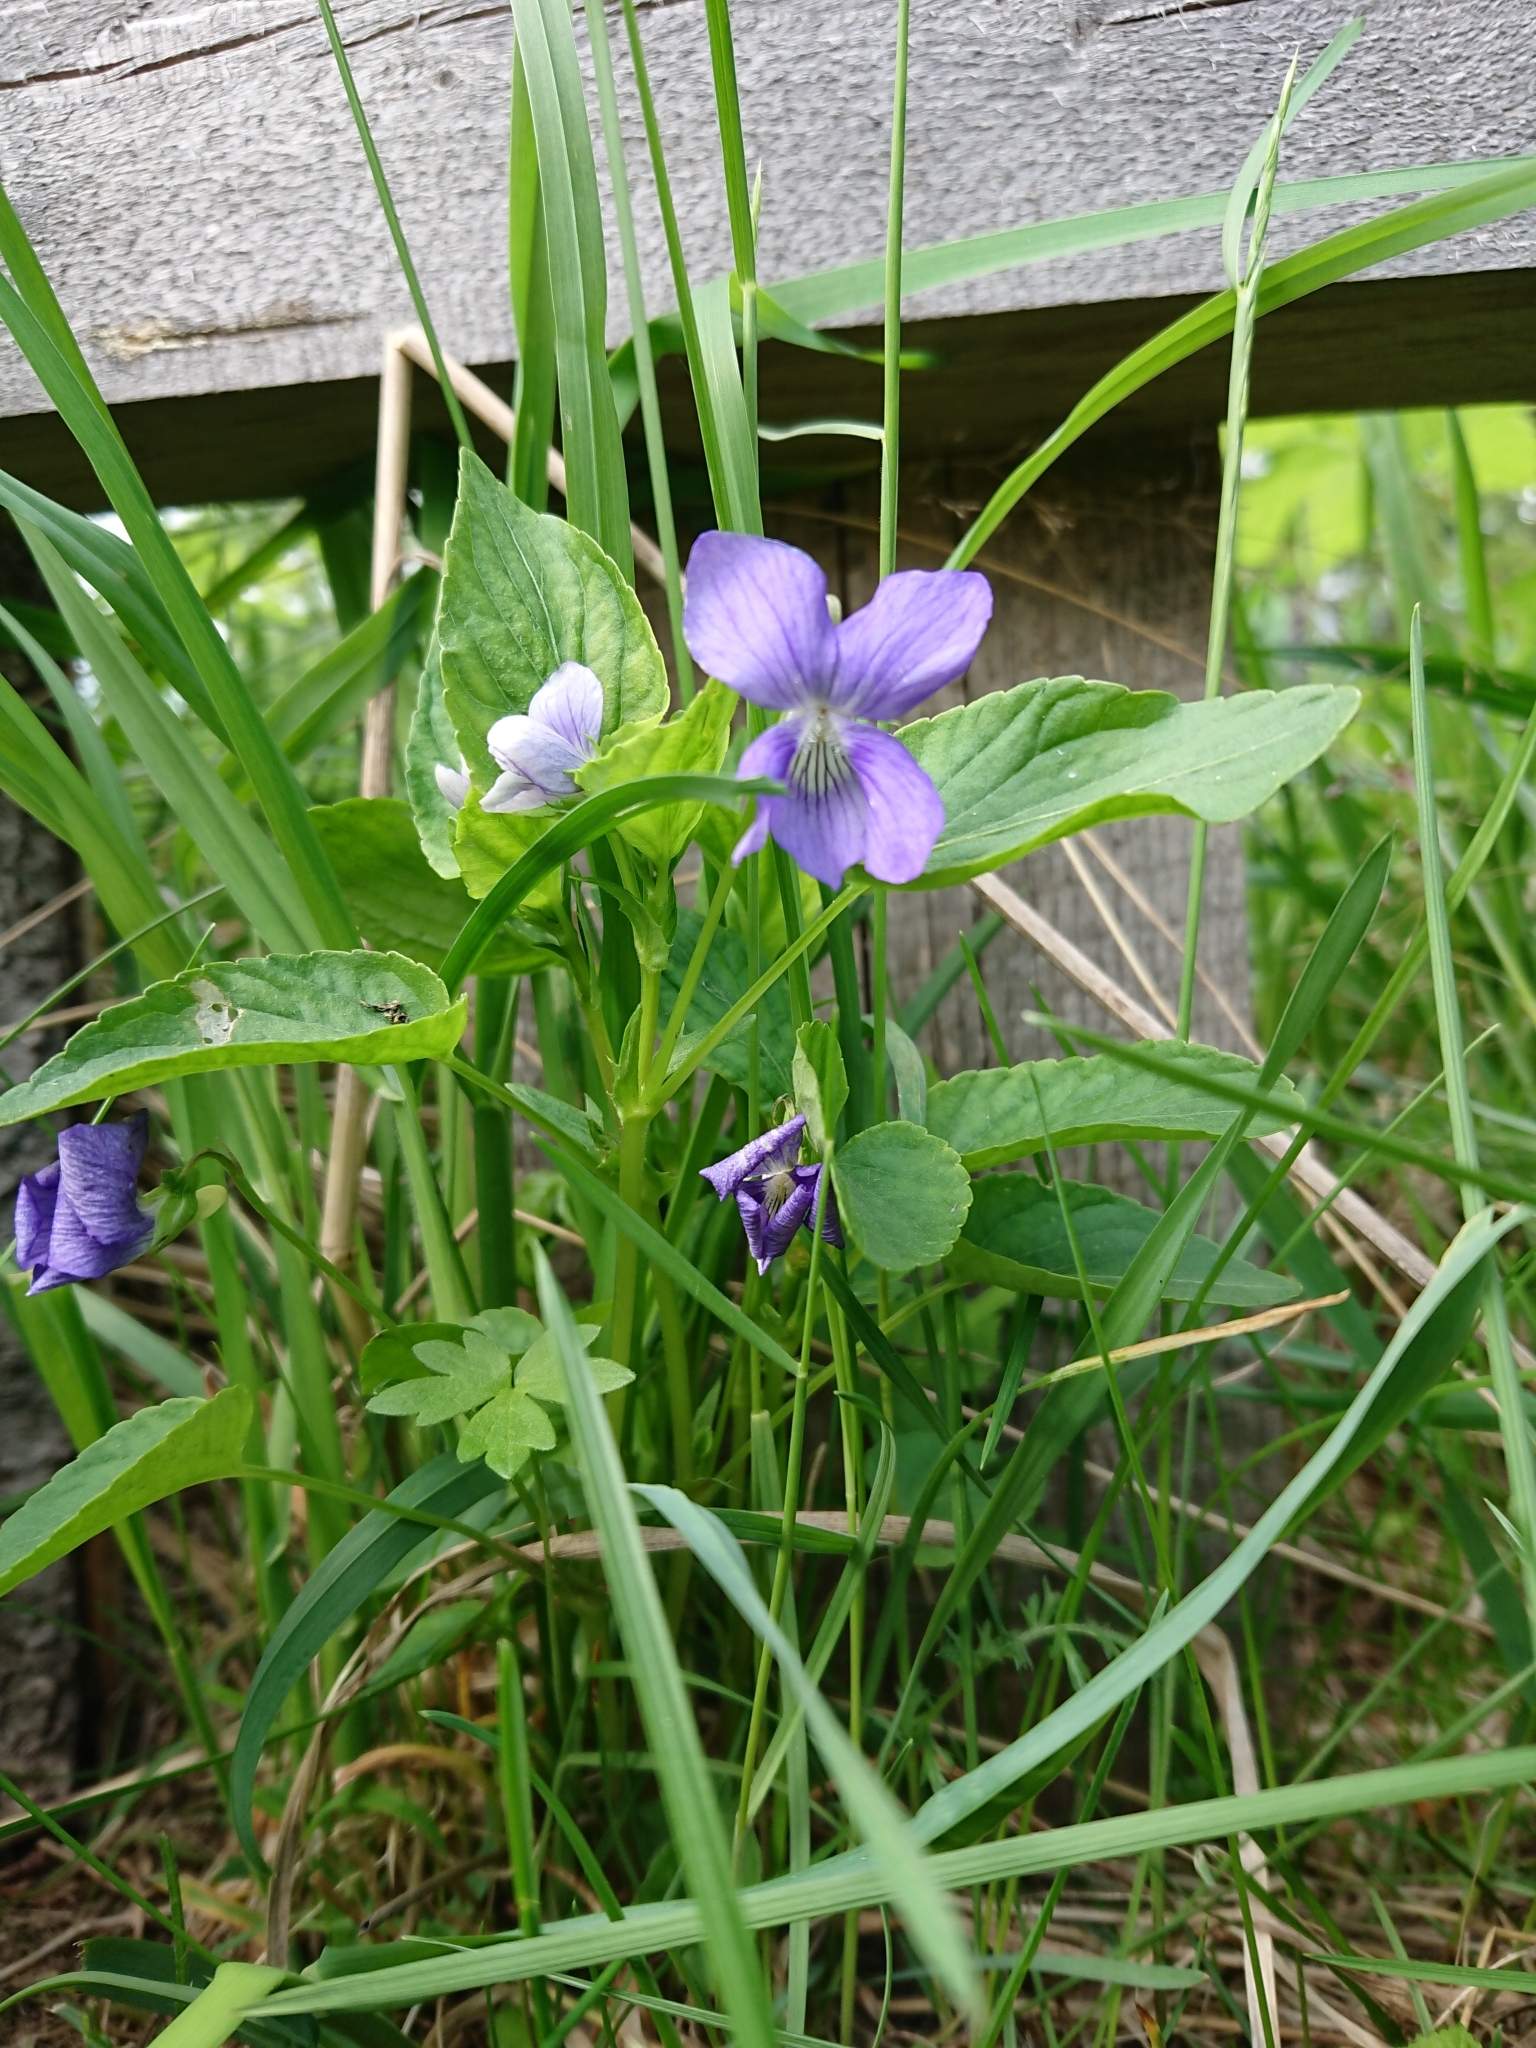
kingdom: Plantae
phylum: Tracheophyta
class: Magnoliopsida
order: Malpighiales
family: Violaceae
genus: Viola
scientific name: Viola
